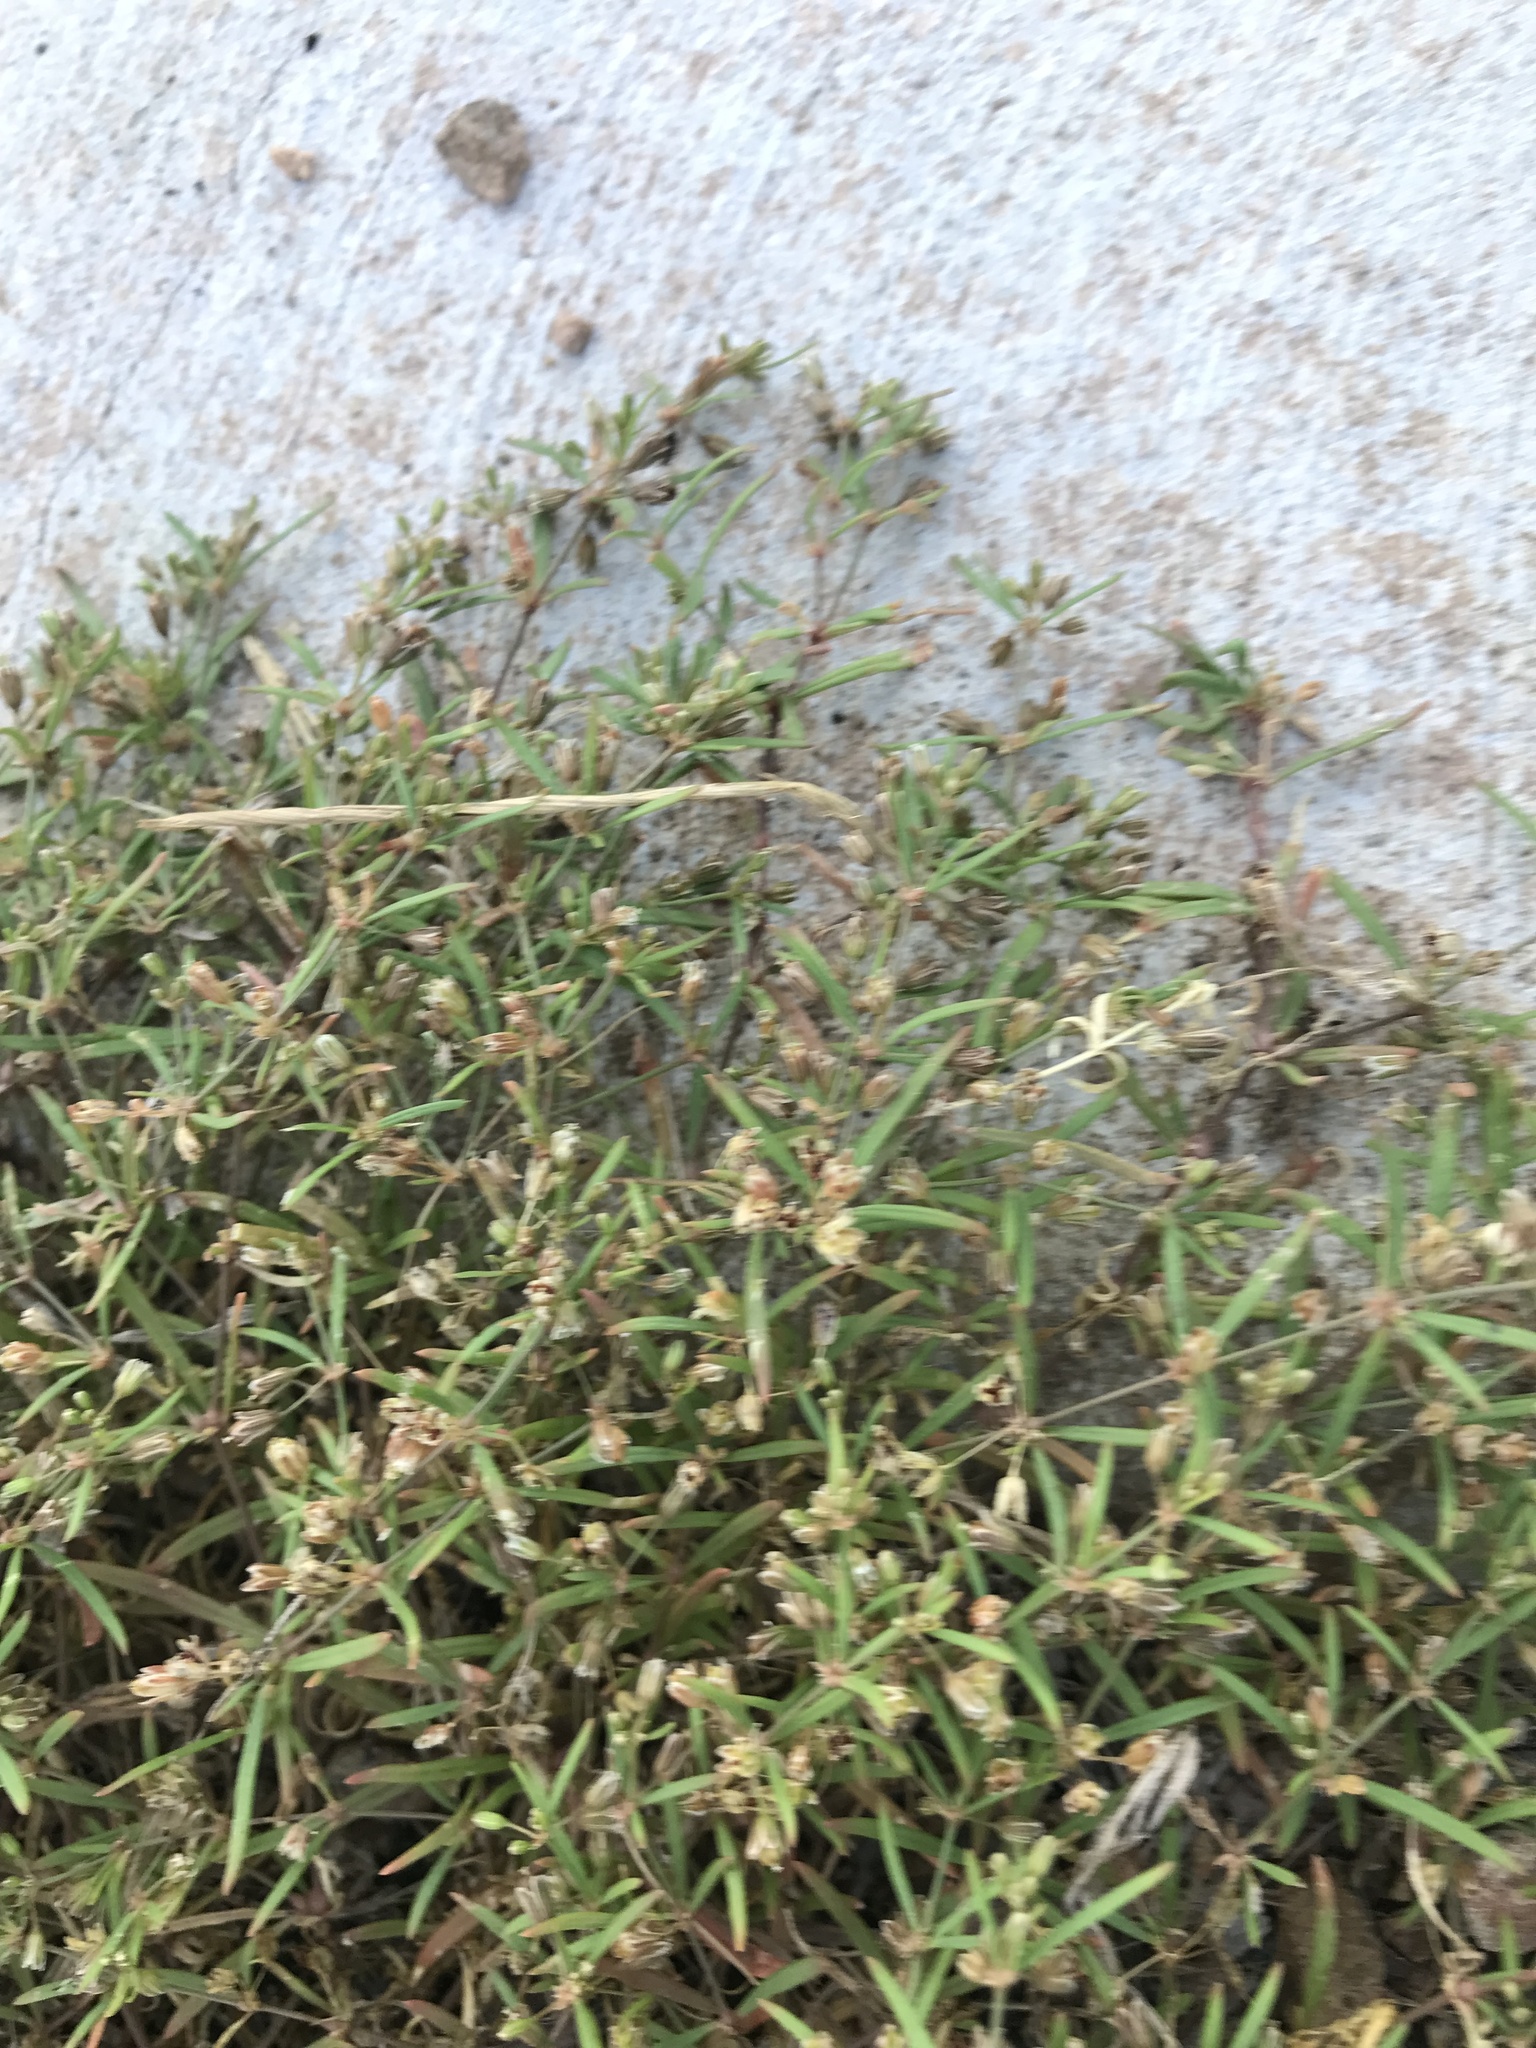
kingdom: Plantae
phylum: Tracheophyta
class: Magnoliopsida
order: Caryophyllales
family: Molluginaceae
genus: Mollugo
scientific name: Mollugo verticillata
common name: Green carpetweed
